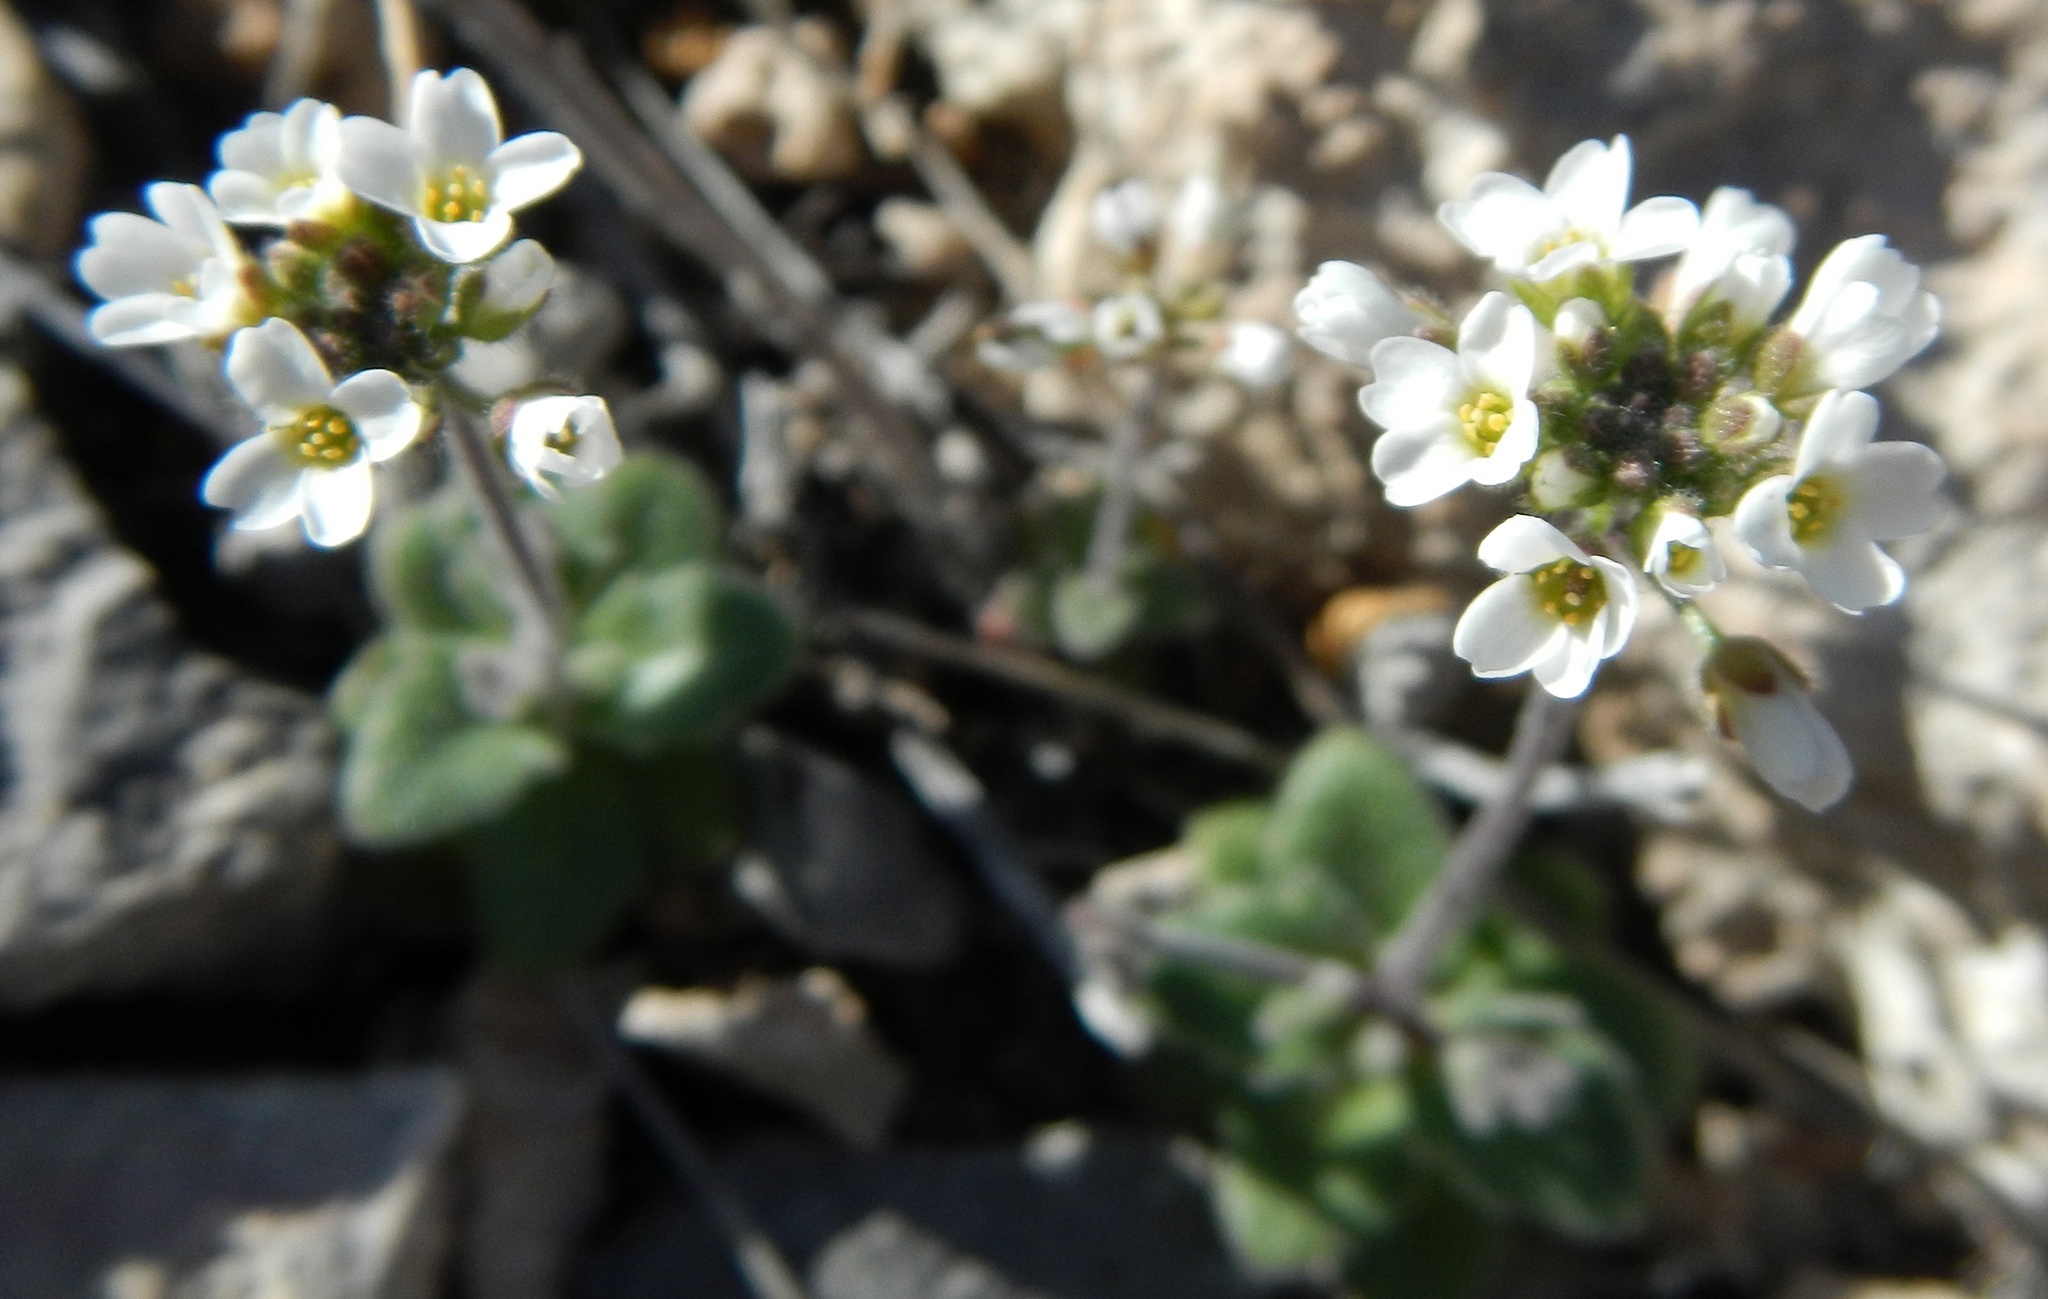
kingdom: Plantae
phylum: Tracheophyta
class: Magnoliopsida
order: Brassicales
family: Brassicaceae
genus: Tomostima
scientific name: Tomostima cuneifolia
